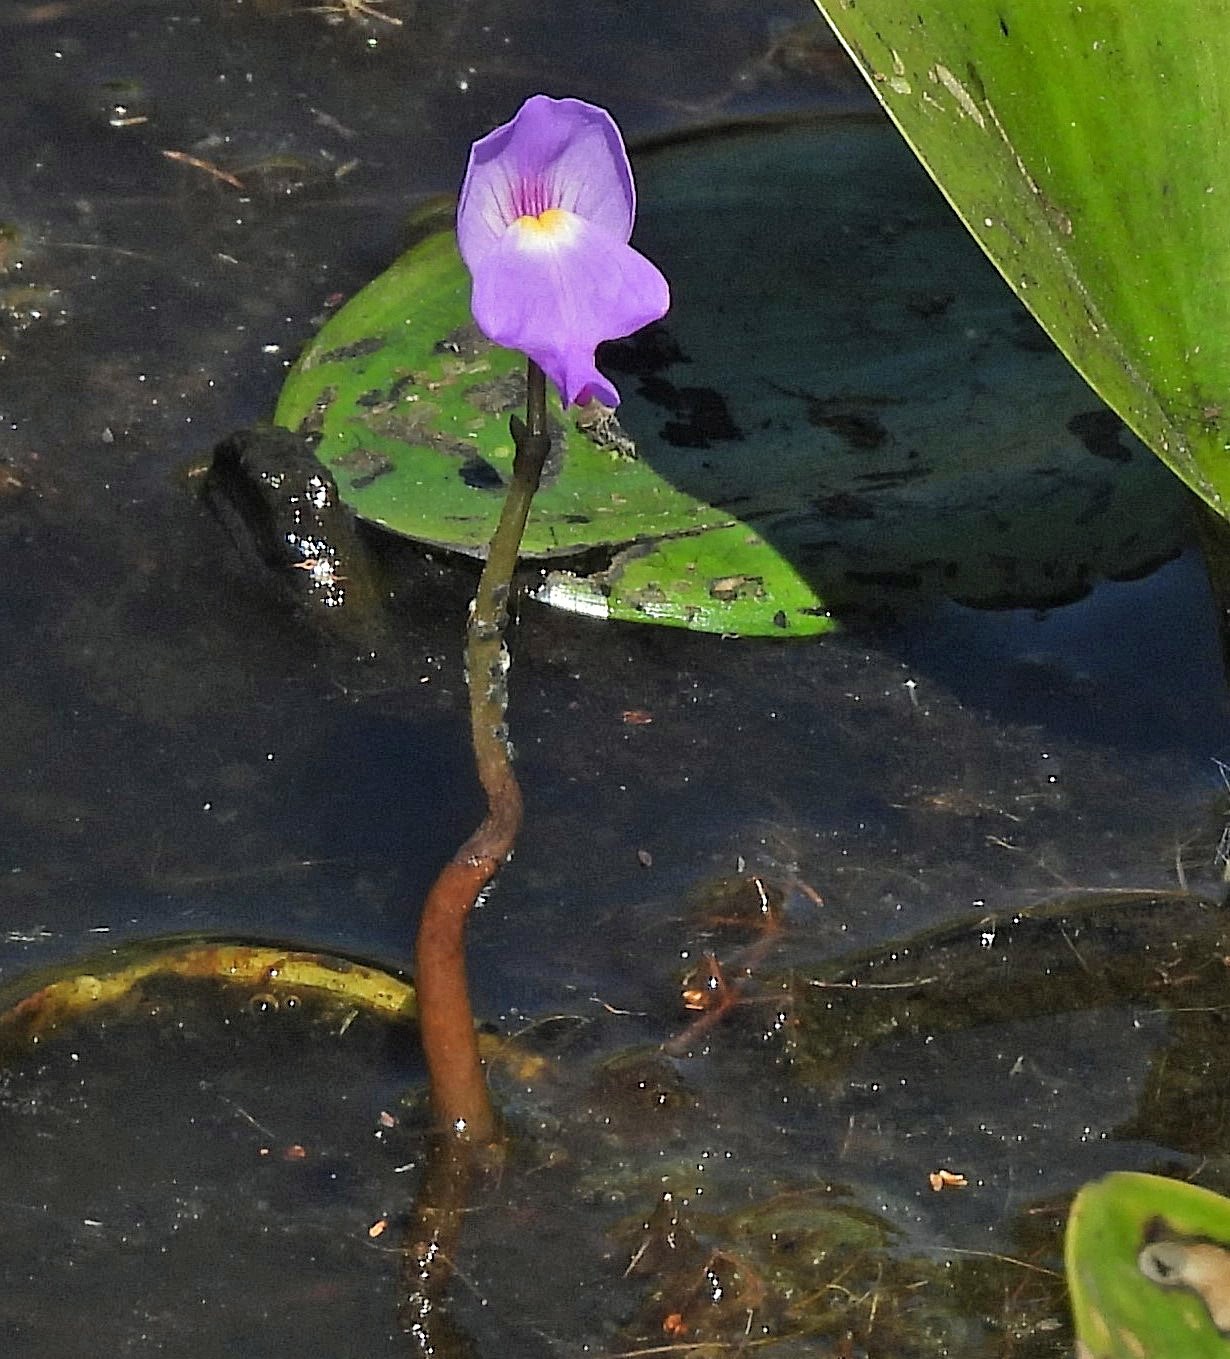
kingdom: Plantae
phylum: Tracheophyta
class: Magnoliopsida
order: Lamiales
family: Lentibulariaceae
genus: Utricularia
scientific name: Utricularia myriocista
